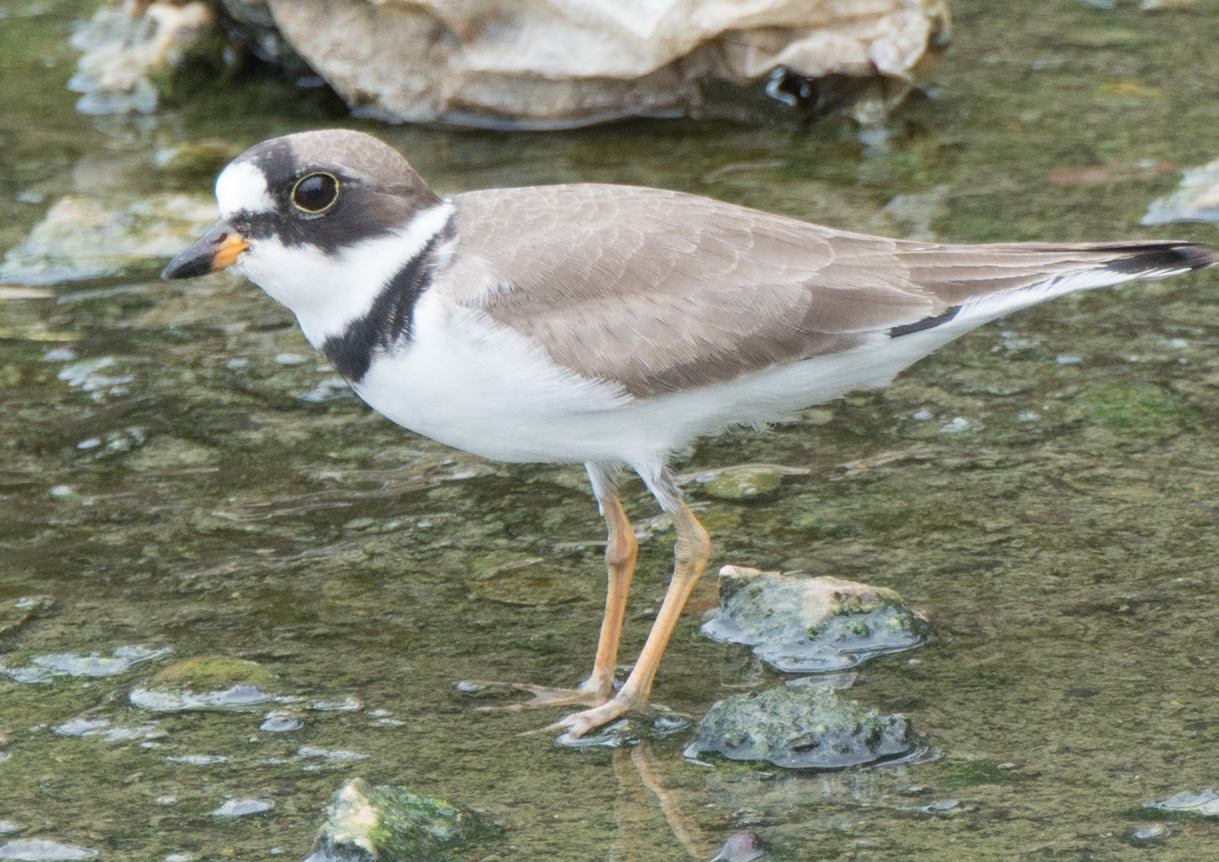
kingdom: Animalia
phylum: Chordata
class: Aves
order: Charadriiformes
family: Charadriidae
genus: Charadrius
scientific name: Charadrius semipalmatus
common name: Semipalmated plover
